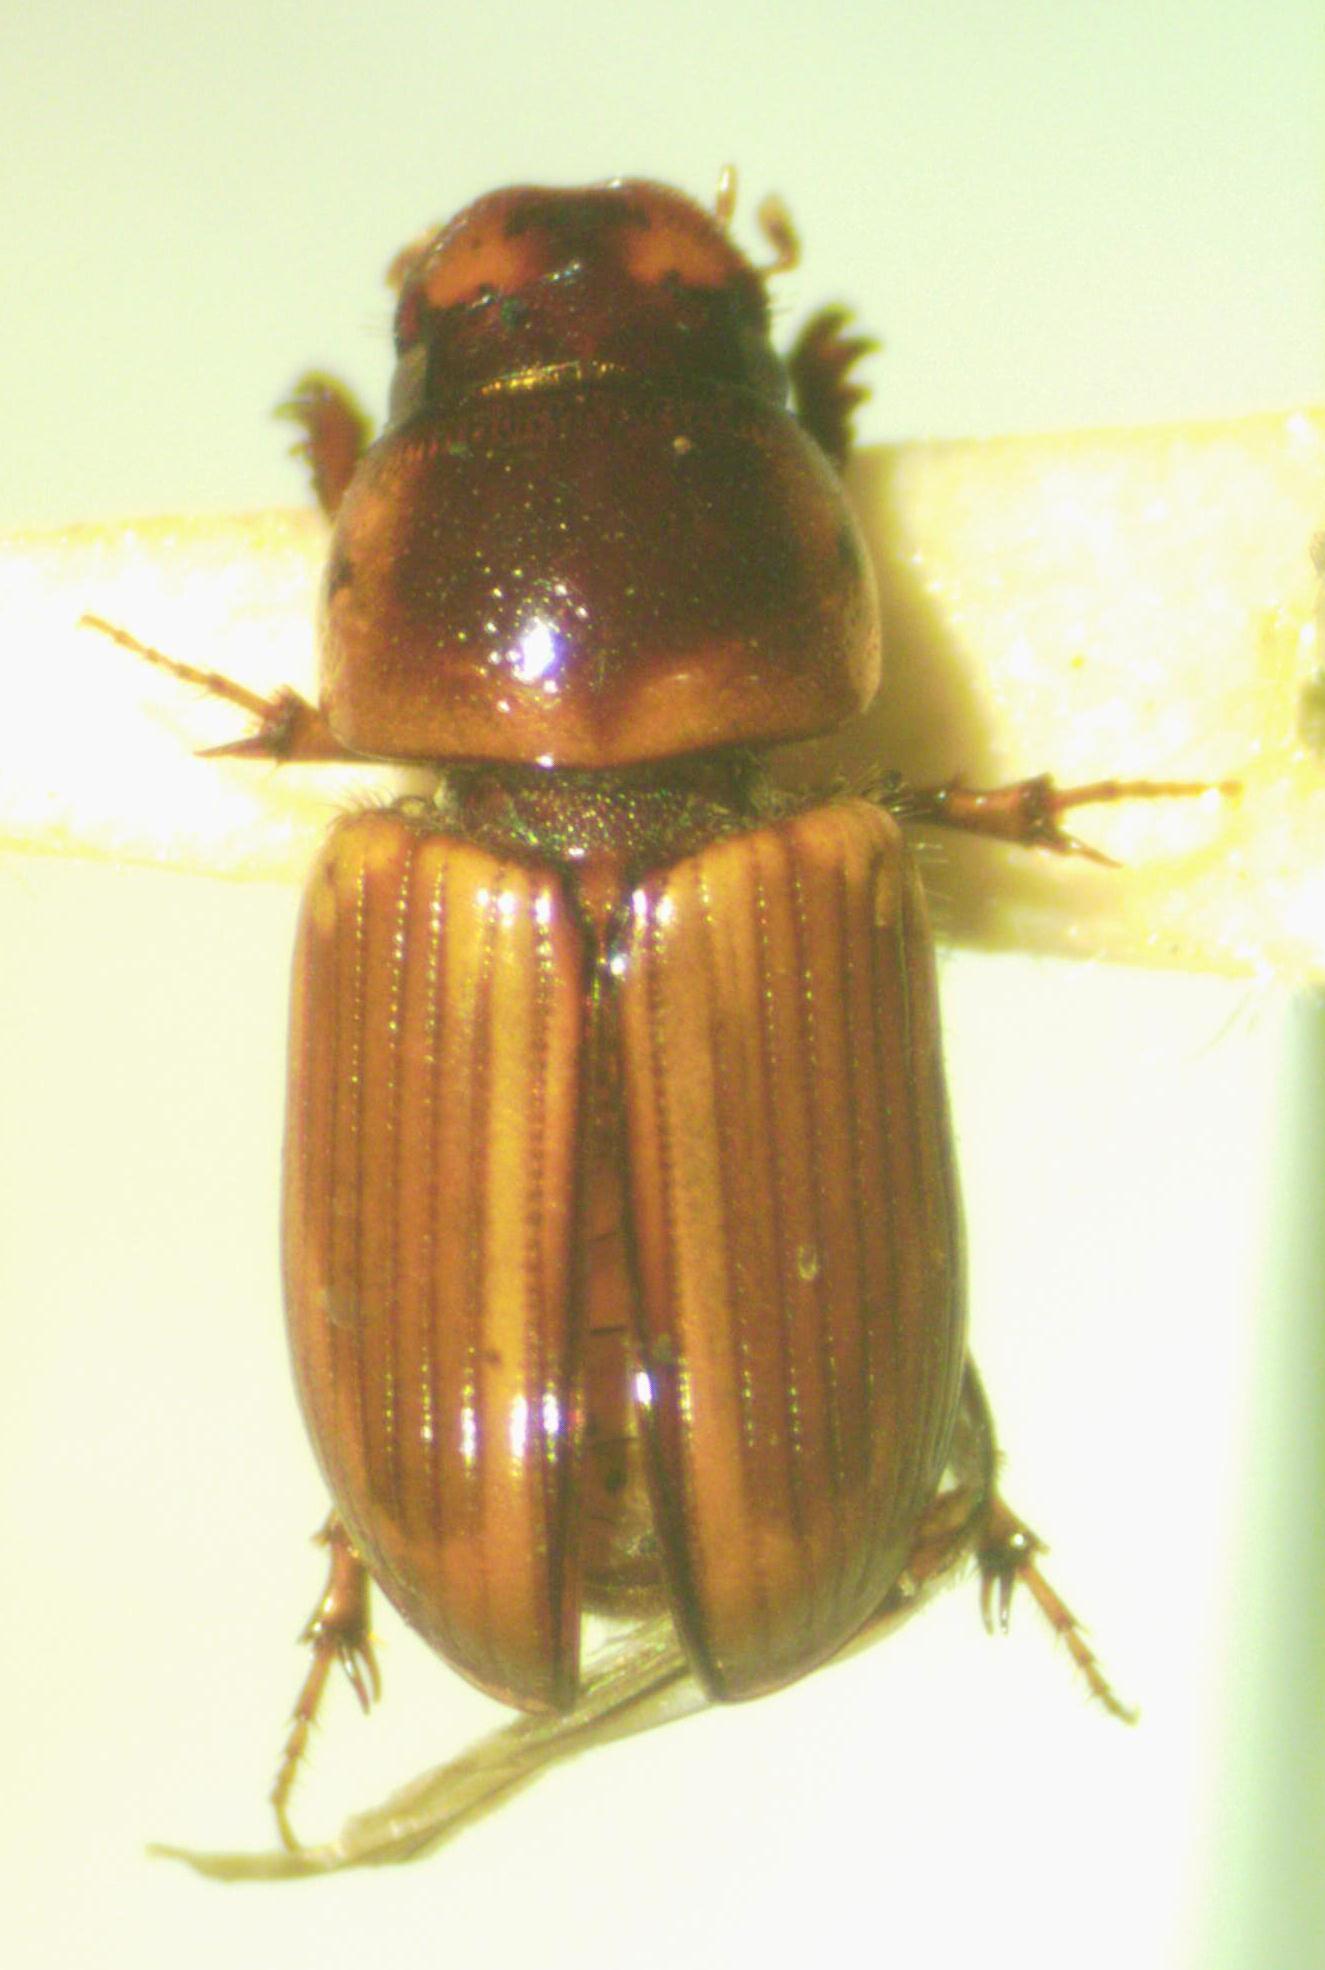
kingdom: Animalia
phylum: Arthropoda
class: Insecta
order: Coleoptera
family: Scarabaeidae
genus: Labarrus
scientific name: Labarrus lividus
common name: Scarab beetle
